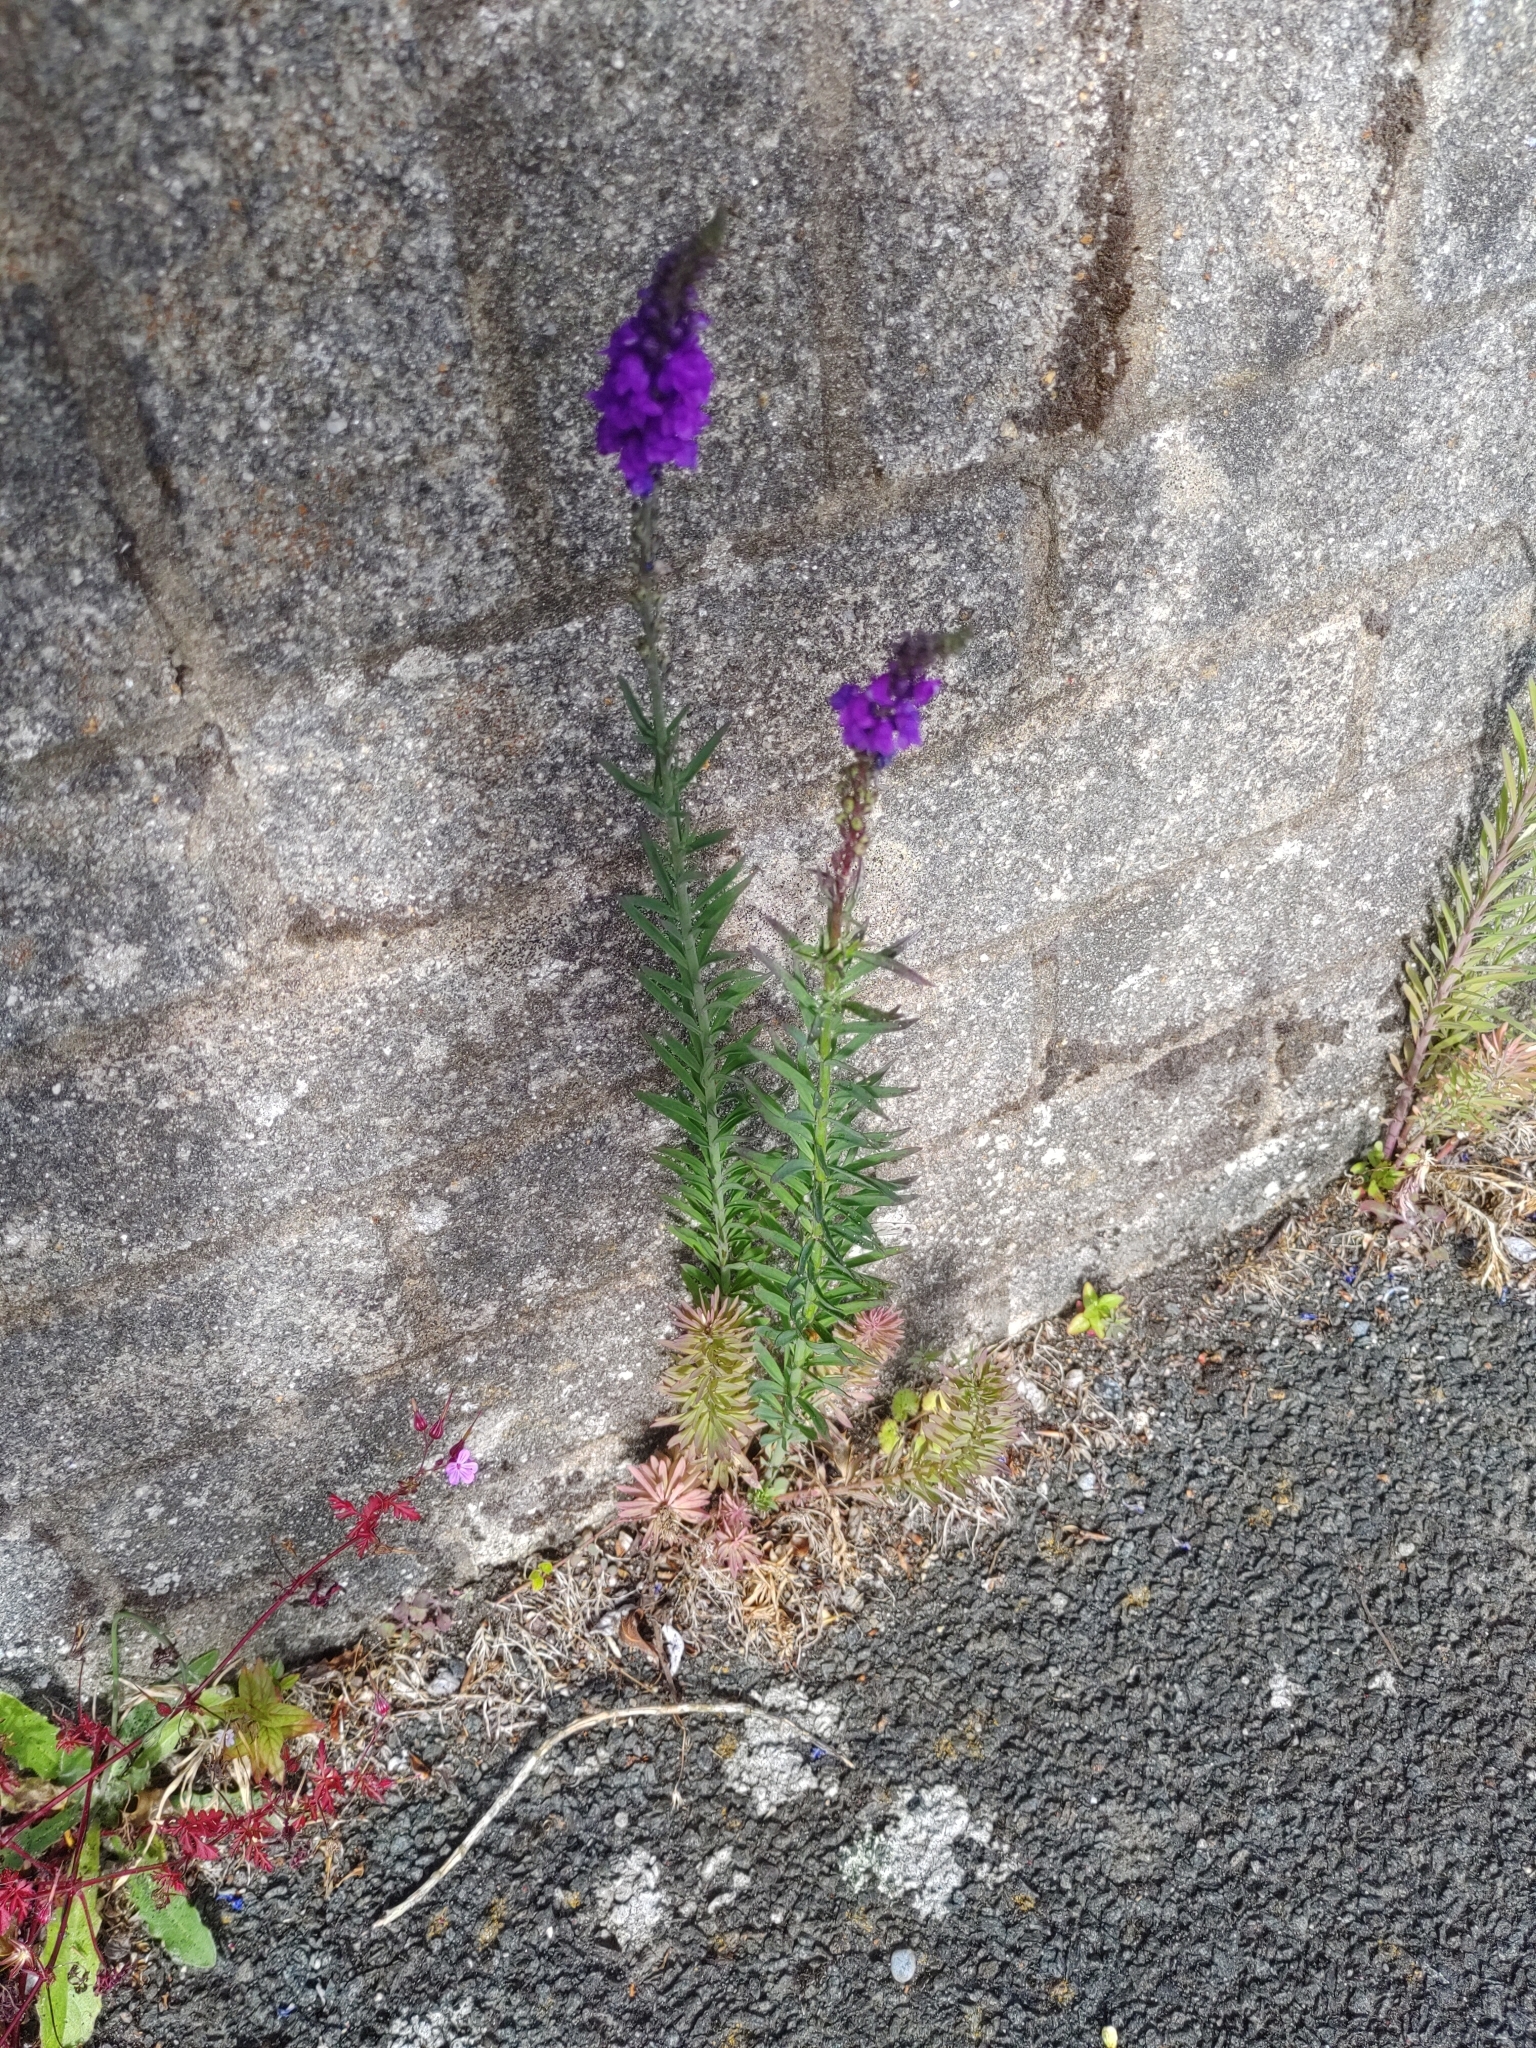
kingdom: Plantae
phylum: Tracheophyta
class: Magnoliopsida
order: Lamiales
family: Plantaginaceae
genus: Linaria
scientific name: Linaria purpurea
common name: Purple toadflax
